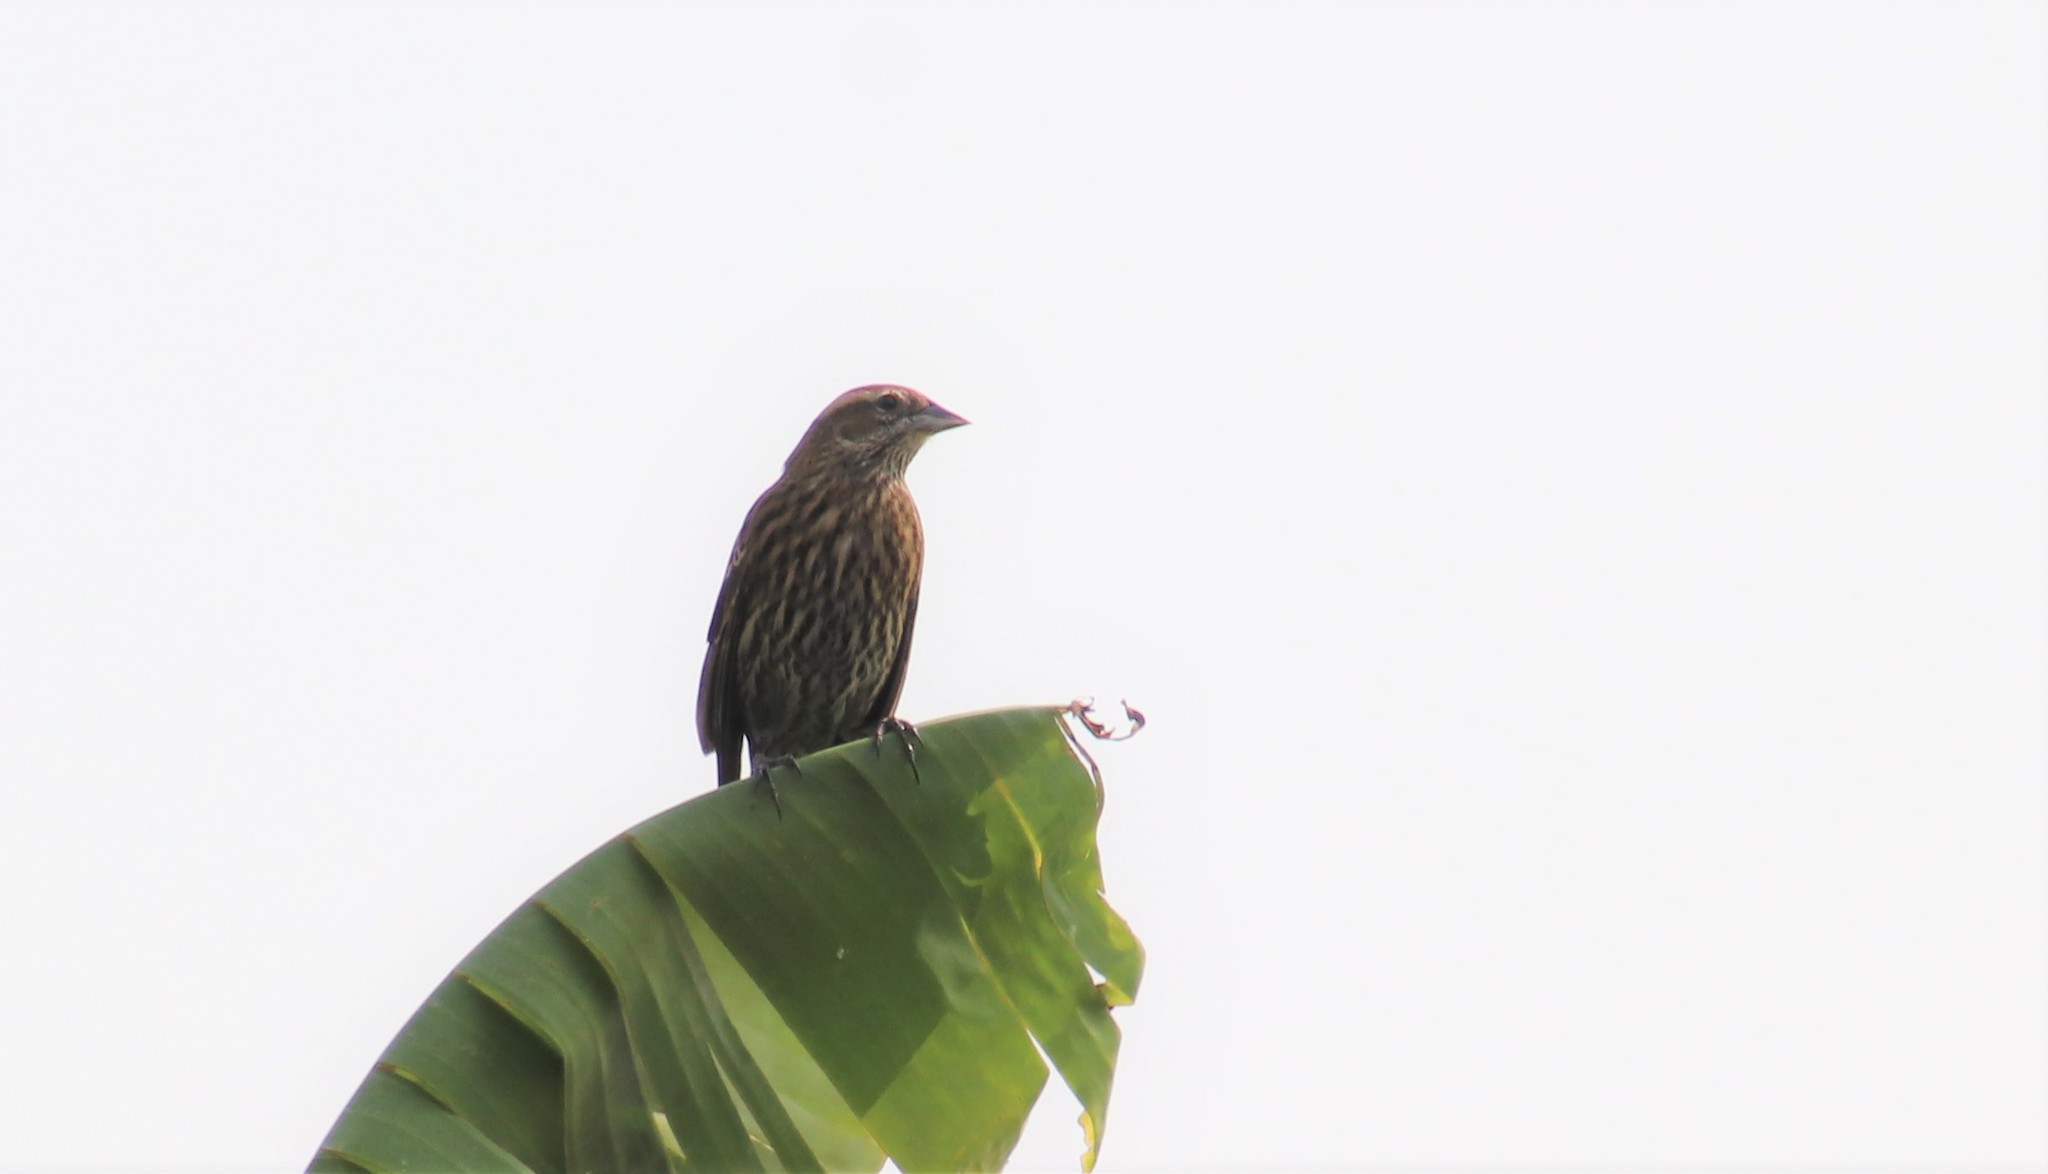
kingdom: Animalia
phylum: Chordata
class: Aves
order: Passeriformes
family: Icteridae
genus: Agelaius
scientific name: Agelaius phoeniceus
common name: Red-winged blackbird
